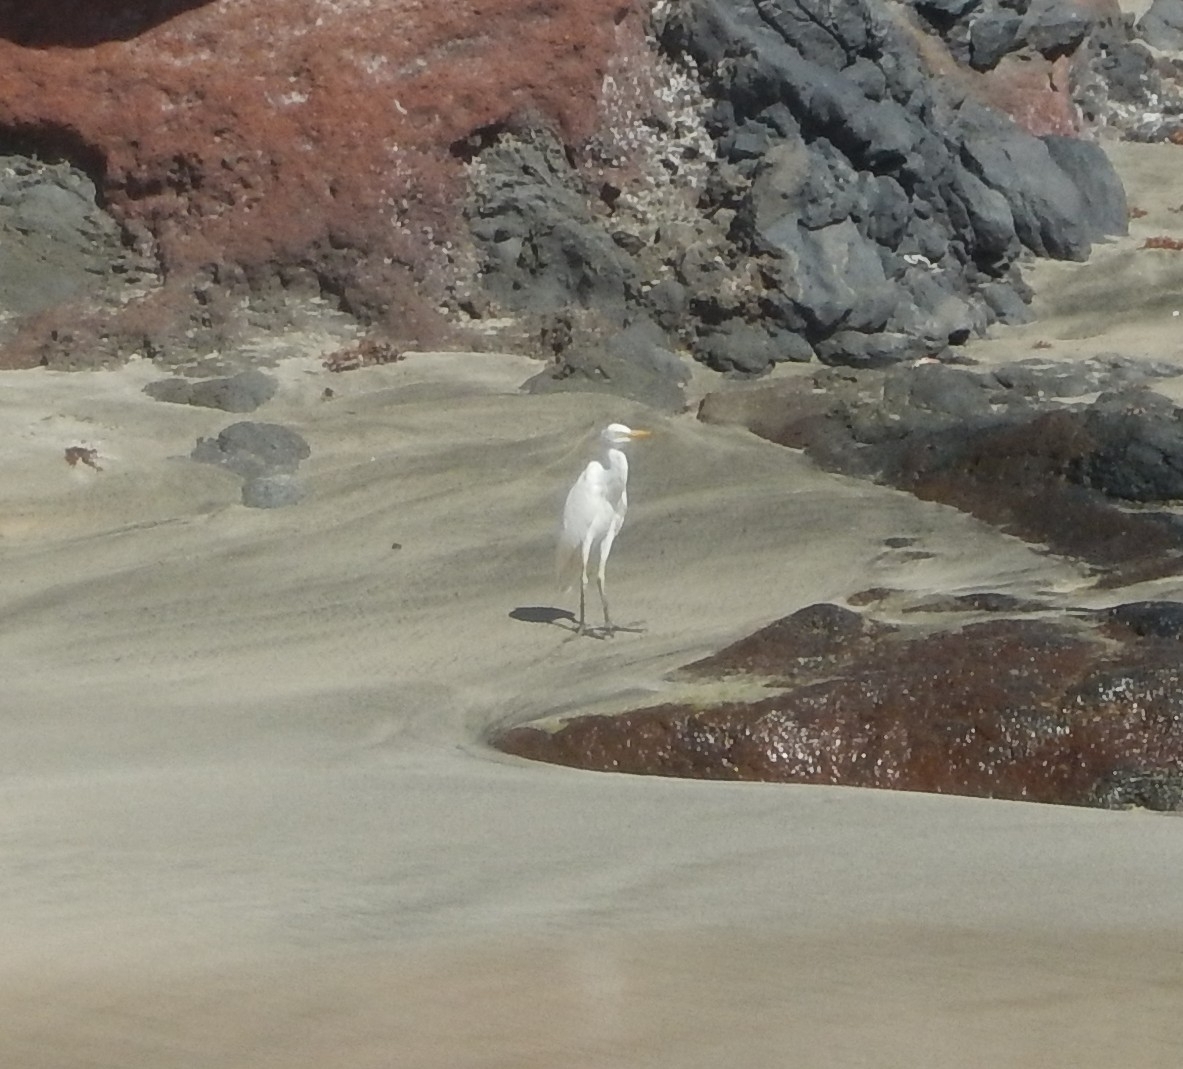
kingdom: Animalia
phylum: Chordata
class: Aves
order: Pelecaniformes
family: Ardeidae
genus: Bubulcus
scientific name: Bubulcus ibis
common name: Cattle egret
